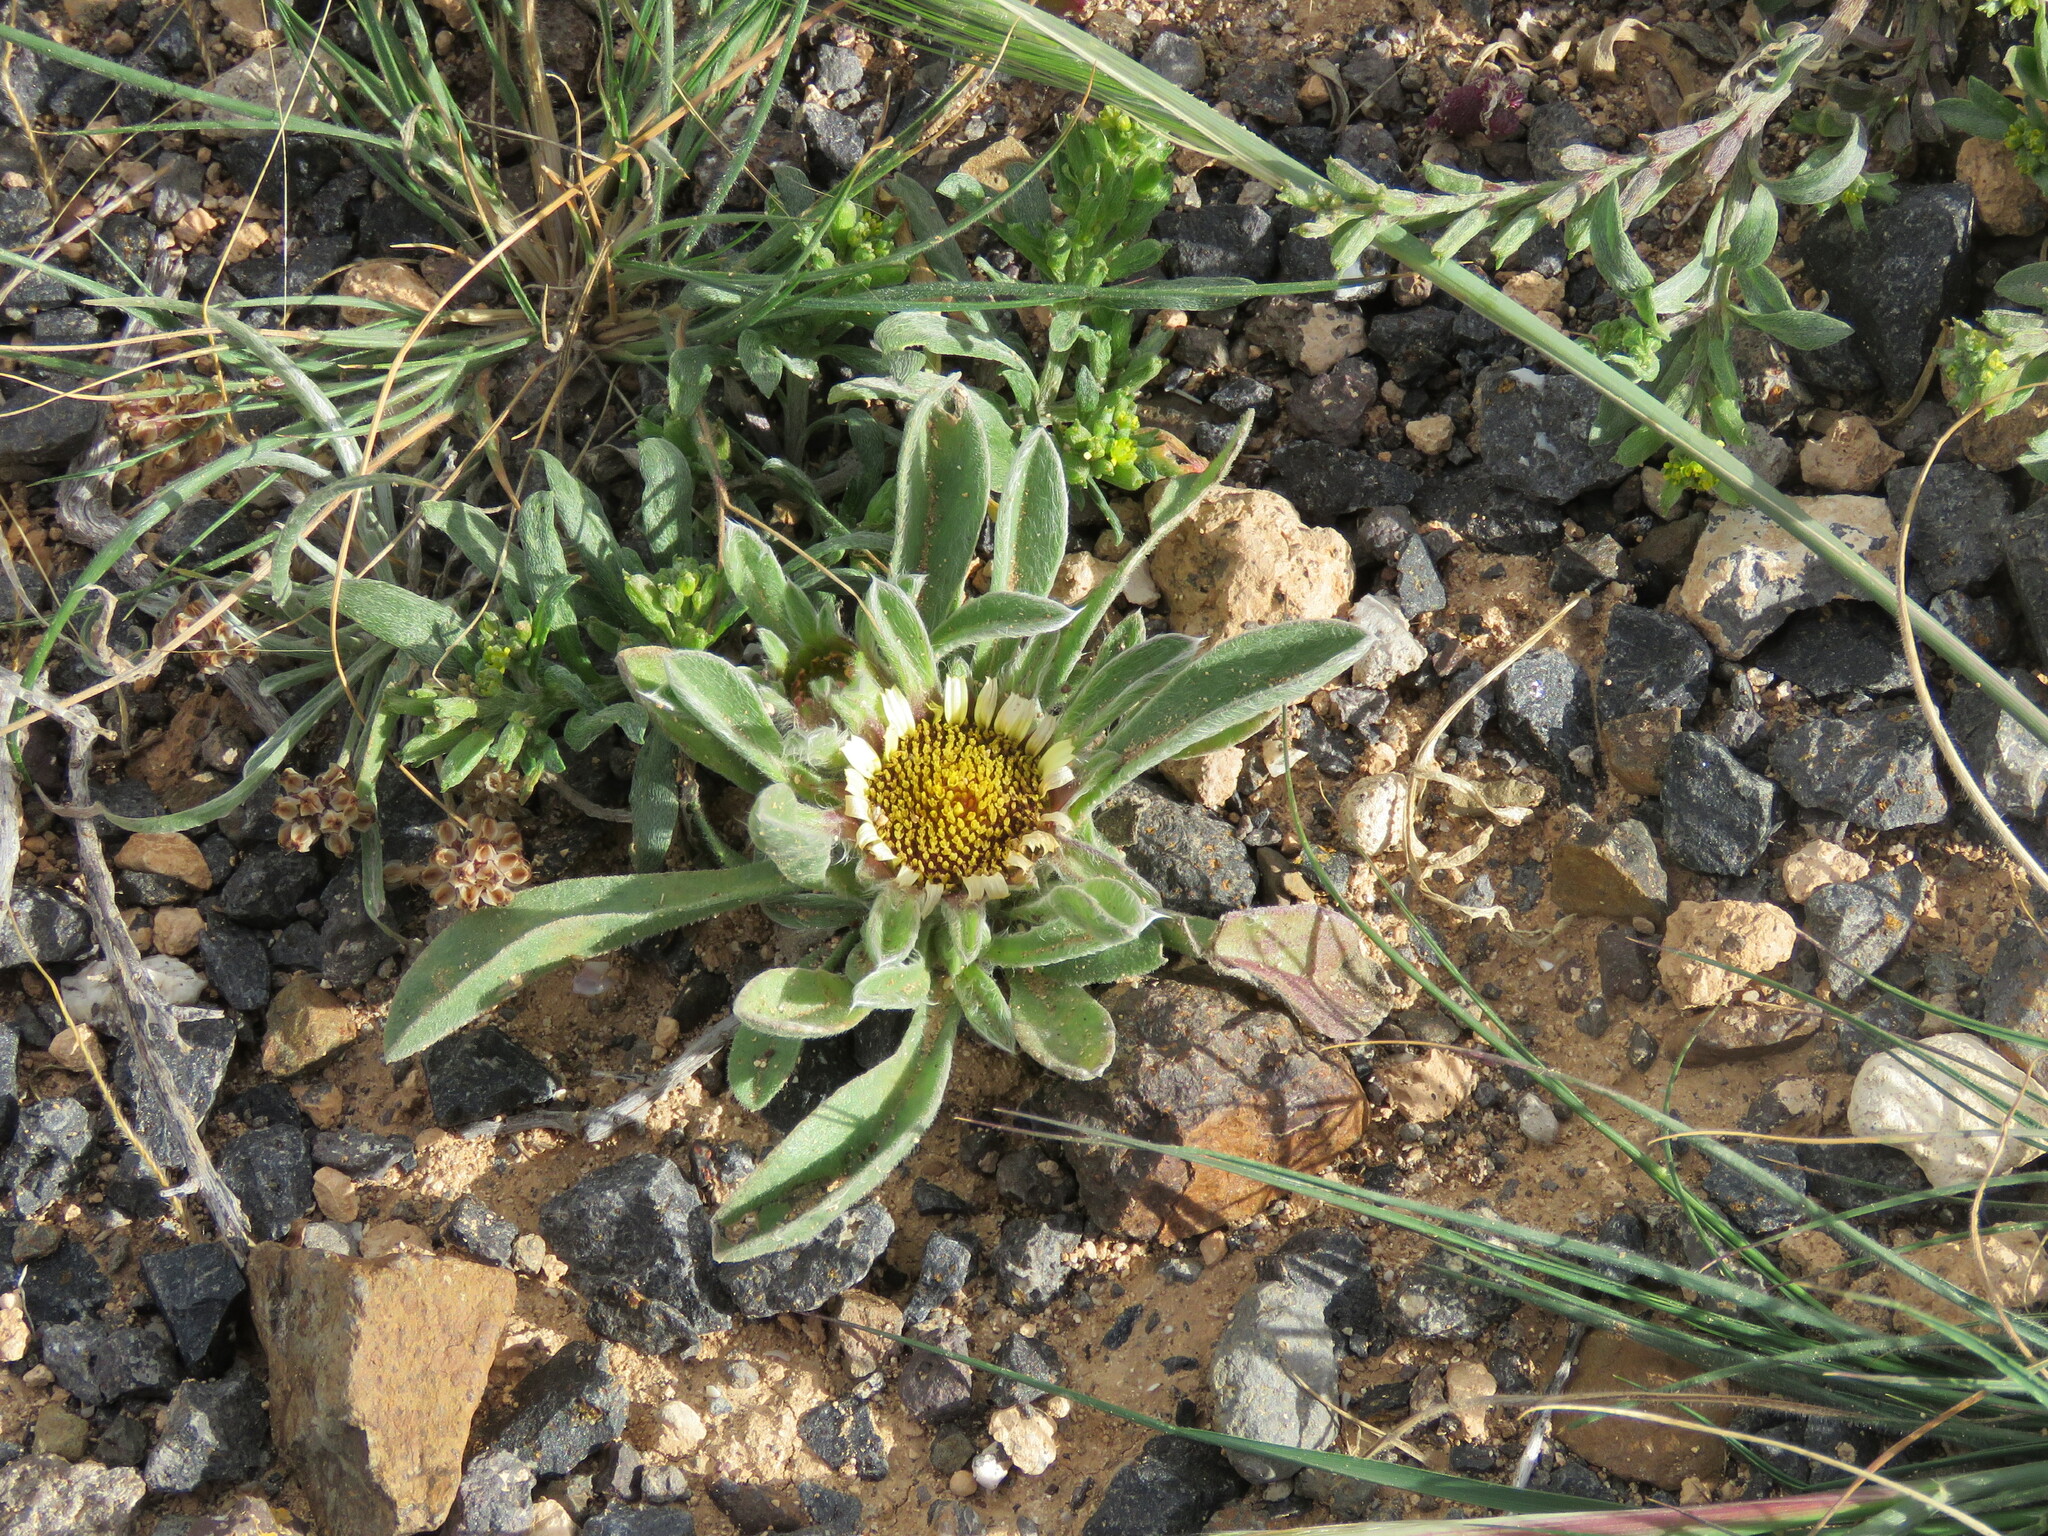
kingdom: Plantae
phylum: Tracheophyta
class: Magnoliopsida
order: Asterales
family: Asteraceae
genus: Pallenis
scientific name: Pallenis hierochuntica
